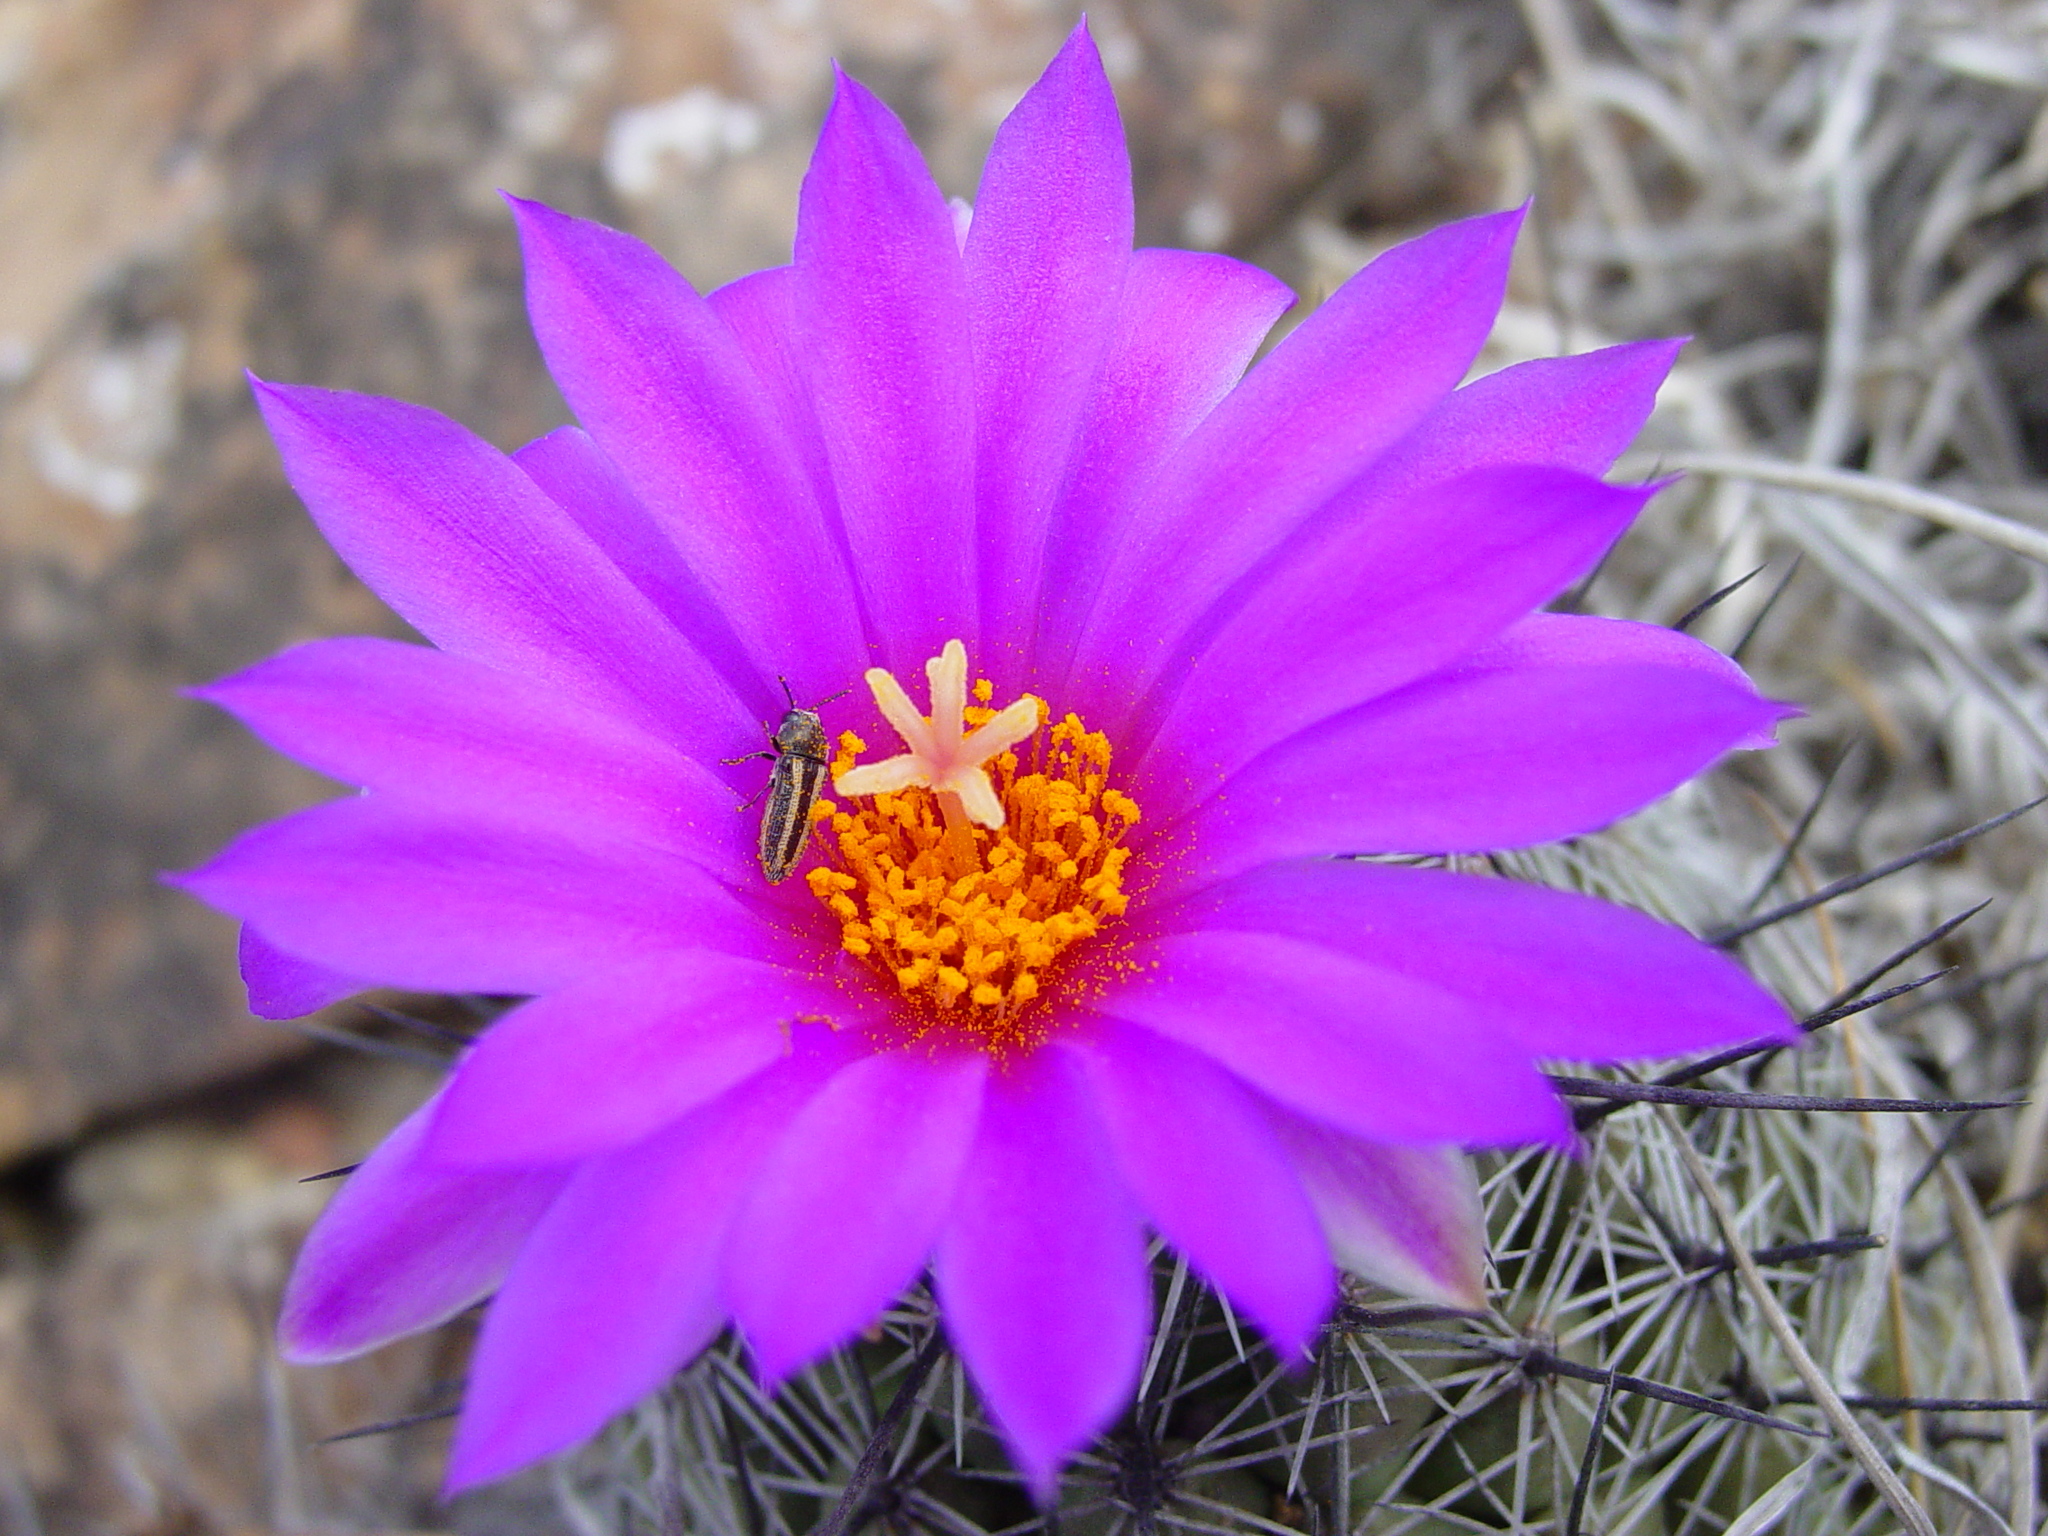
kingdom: Animalia
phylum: Arthropoda
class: Insecta
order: Coleoptera
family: Buprestidae
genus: Acmaeodera
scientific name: Acmaeodera quadrivittatoides
